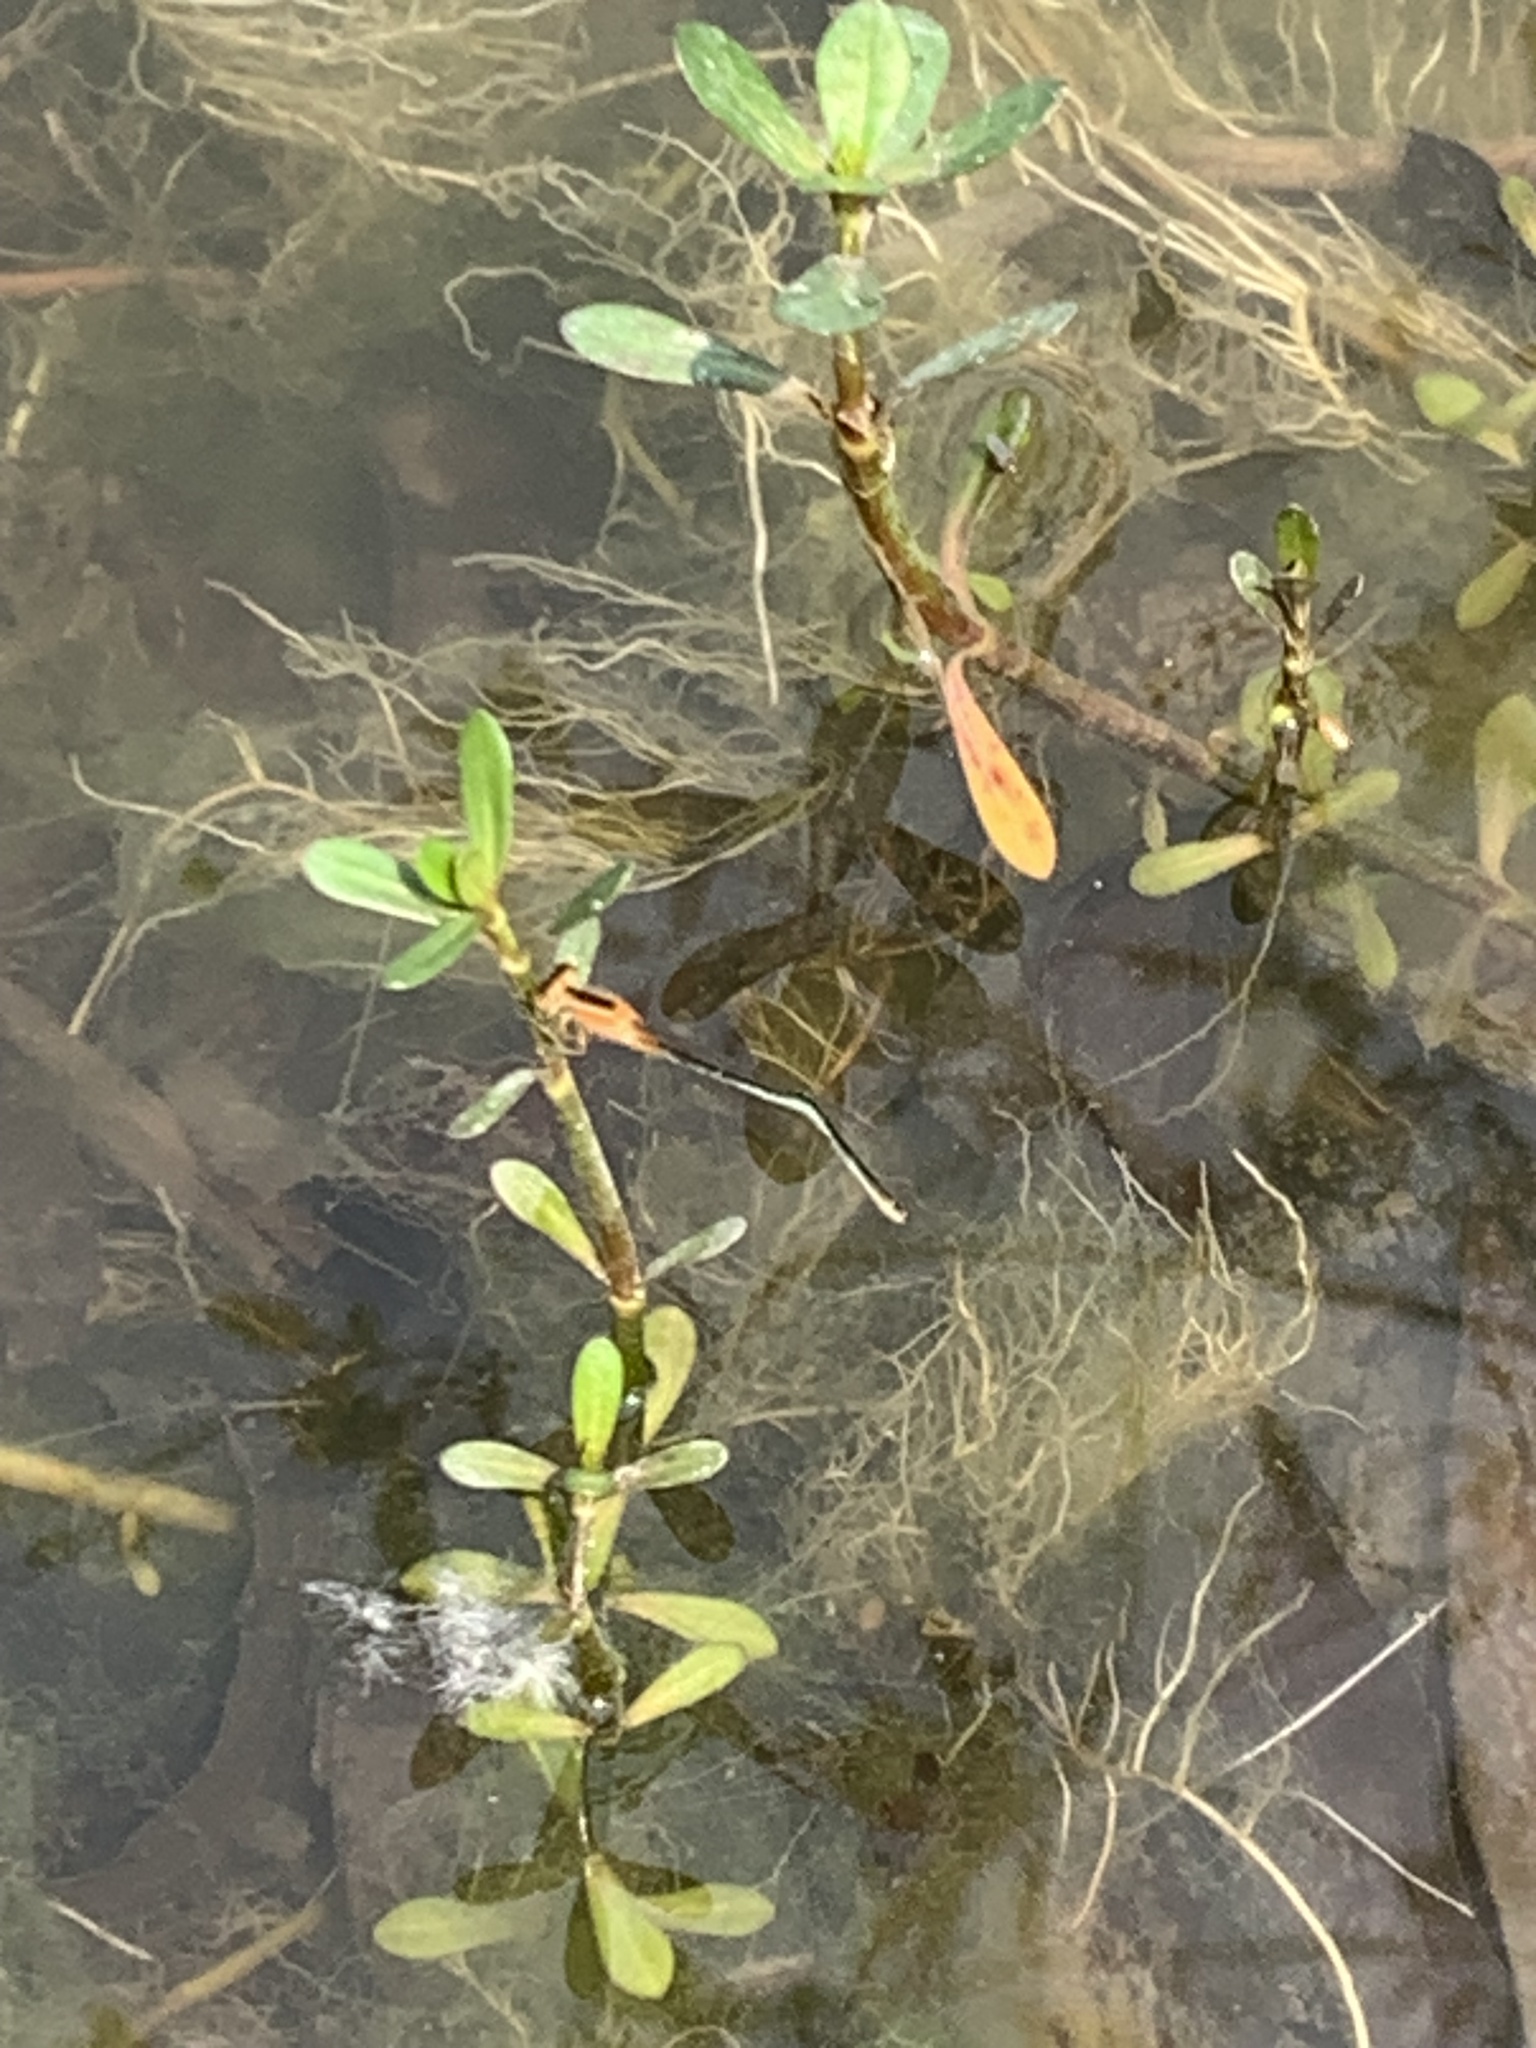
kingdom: Animalia
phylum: Arthropoda
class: Insecta
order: Odonata
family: Coenagrionidae
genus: Ischnura
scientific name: Ischnura senegalensis
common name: Tropical bluetail
